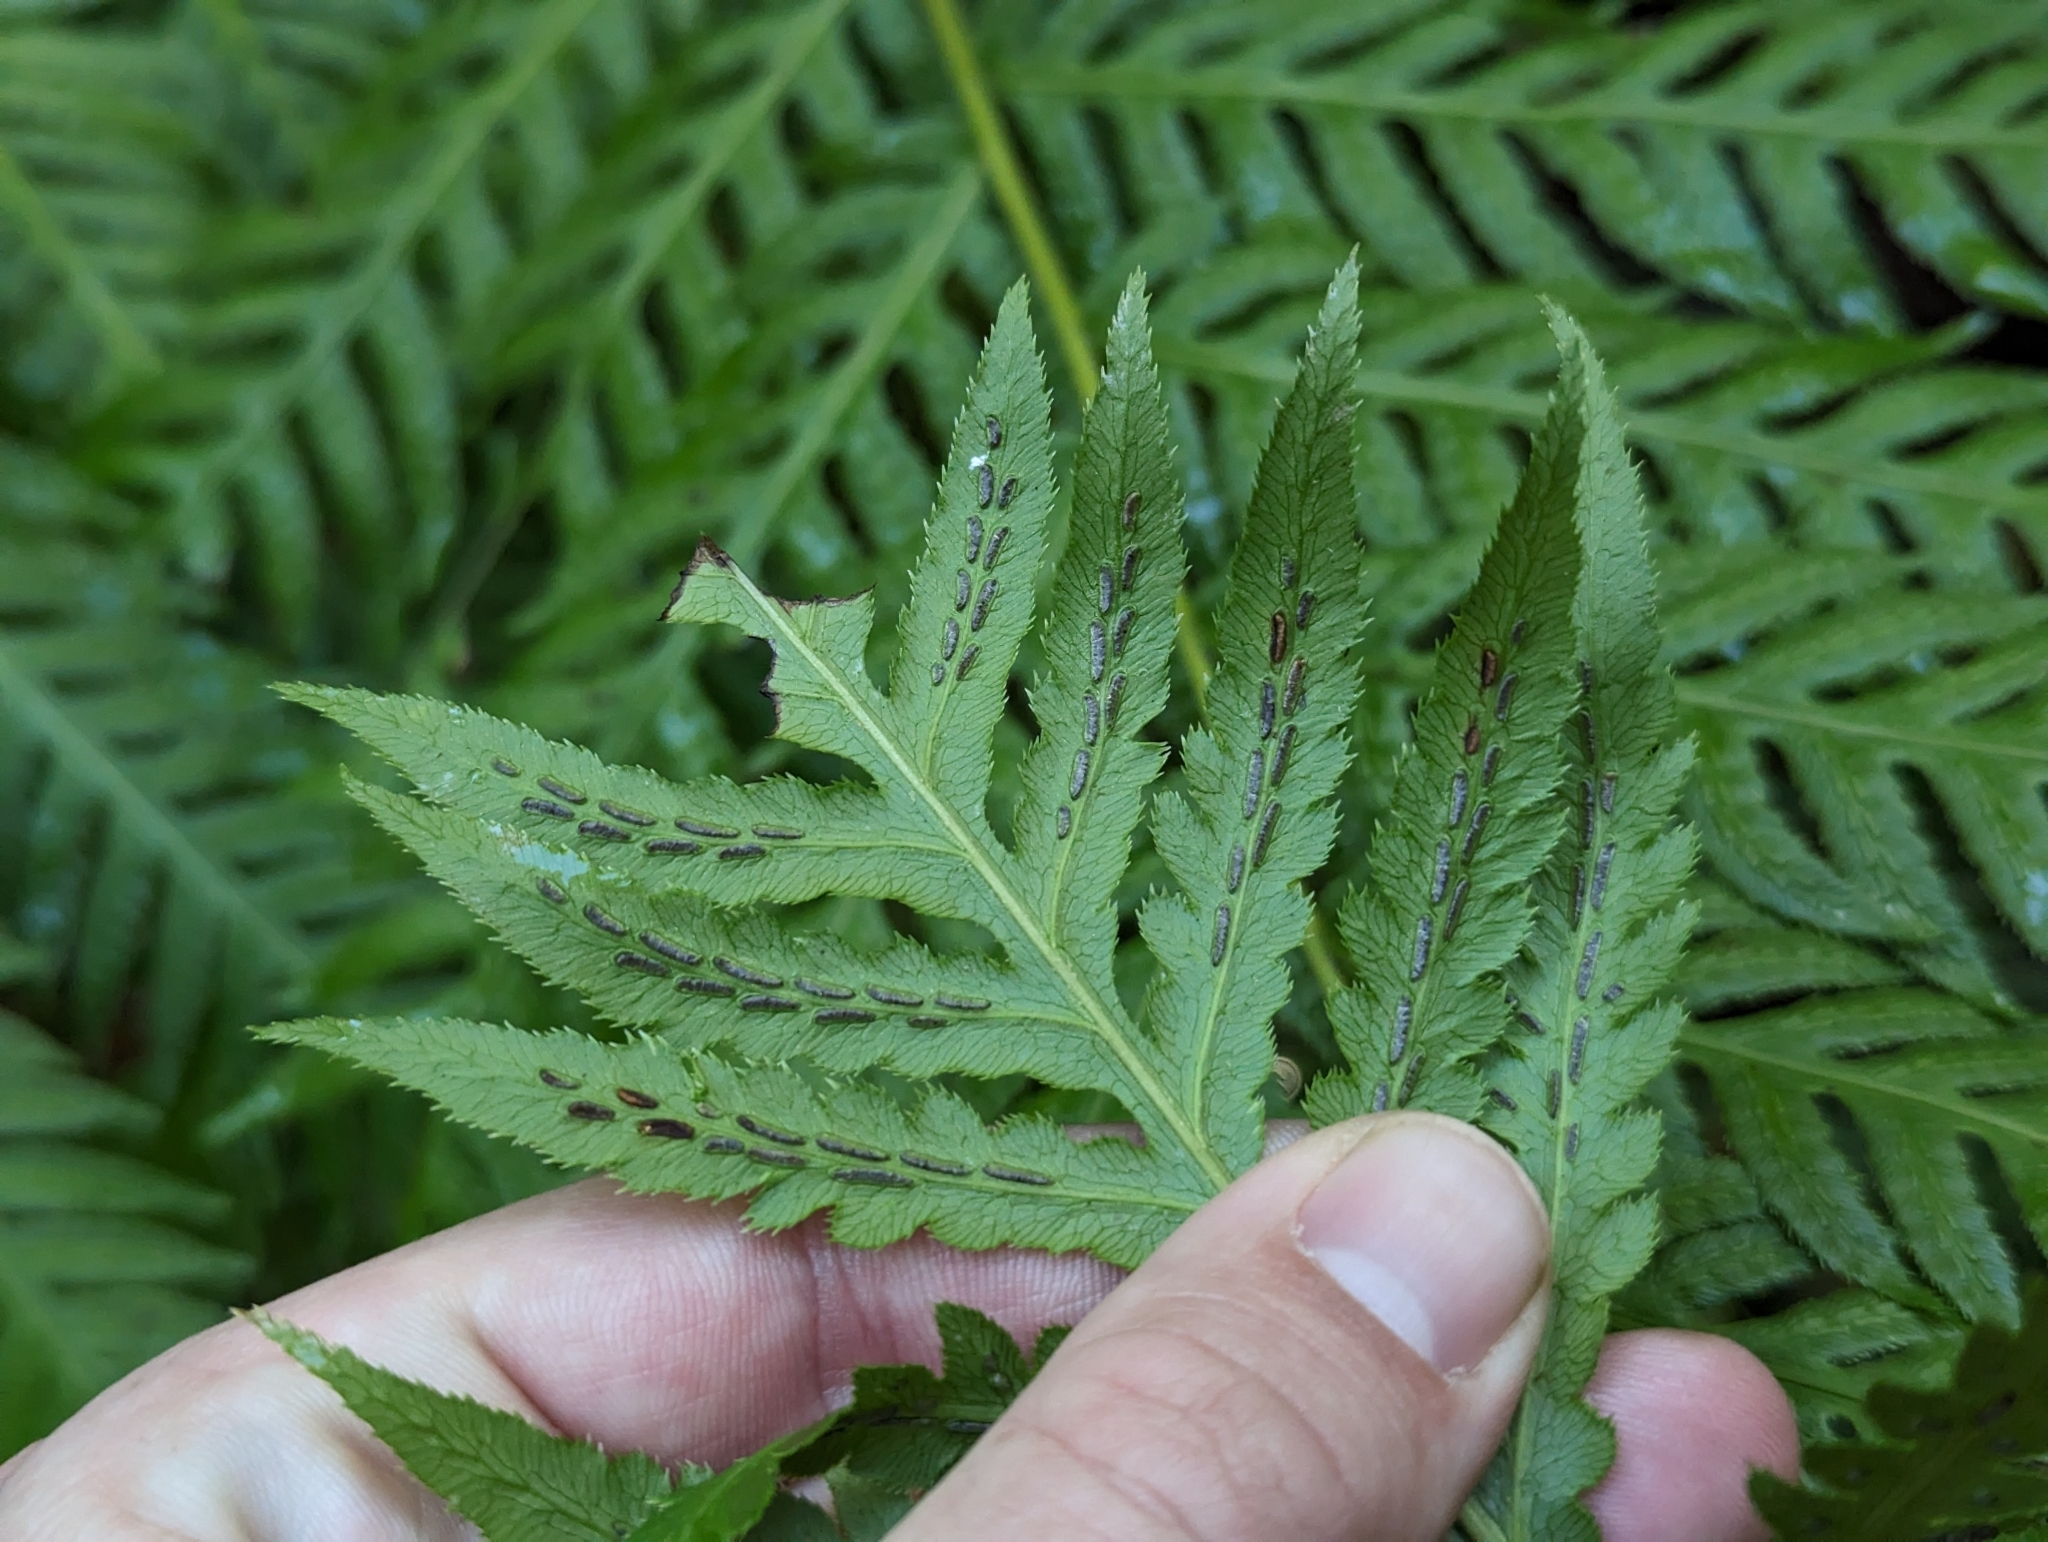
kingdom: Plantae
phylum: Tracheophyta
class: Polypodiopsida
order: Polypodiales
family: Blechnaceae
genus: Woodwardia
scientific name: Woodwardia fimbriata
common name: Giant chain fern
